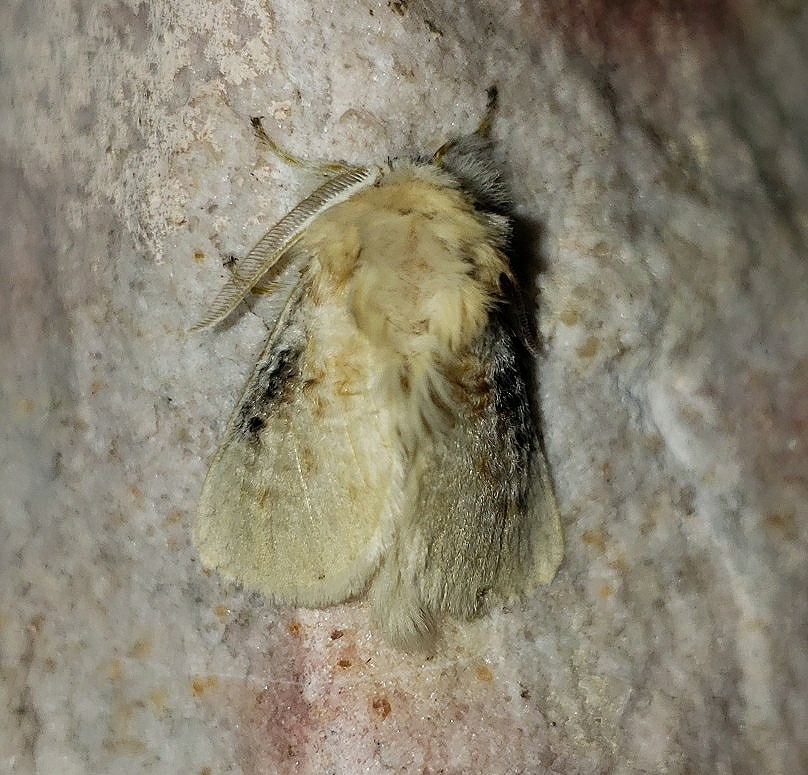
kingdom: Animalia
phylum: Arthropoda
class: Insecta
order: Lepidoptera
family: Megalopygidae
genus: Megalopyge
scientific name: Megalopyge crispata
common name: Black-waved flannel moth
